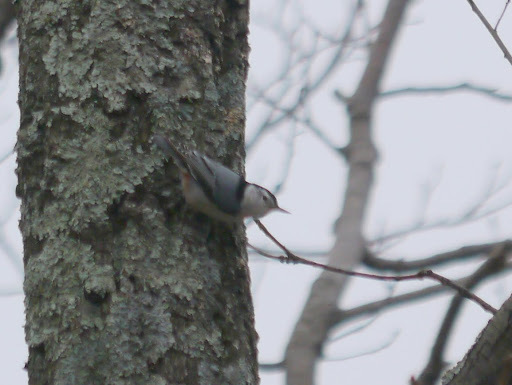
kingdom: Animalia
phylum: Chordata
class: Aves
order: Passeriformes
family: Sittidae
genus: Sitta
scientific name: Sitta carolinensis
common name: White-breasted nuthatch
